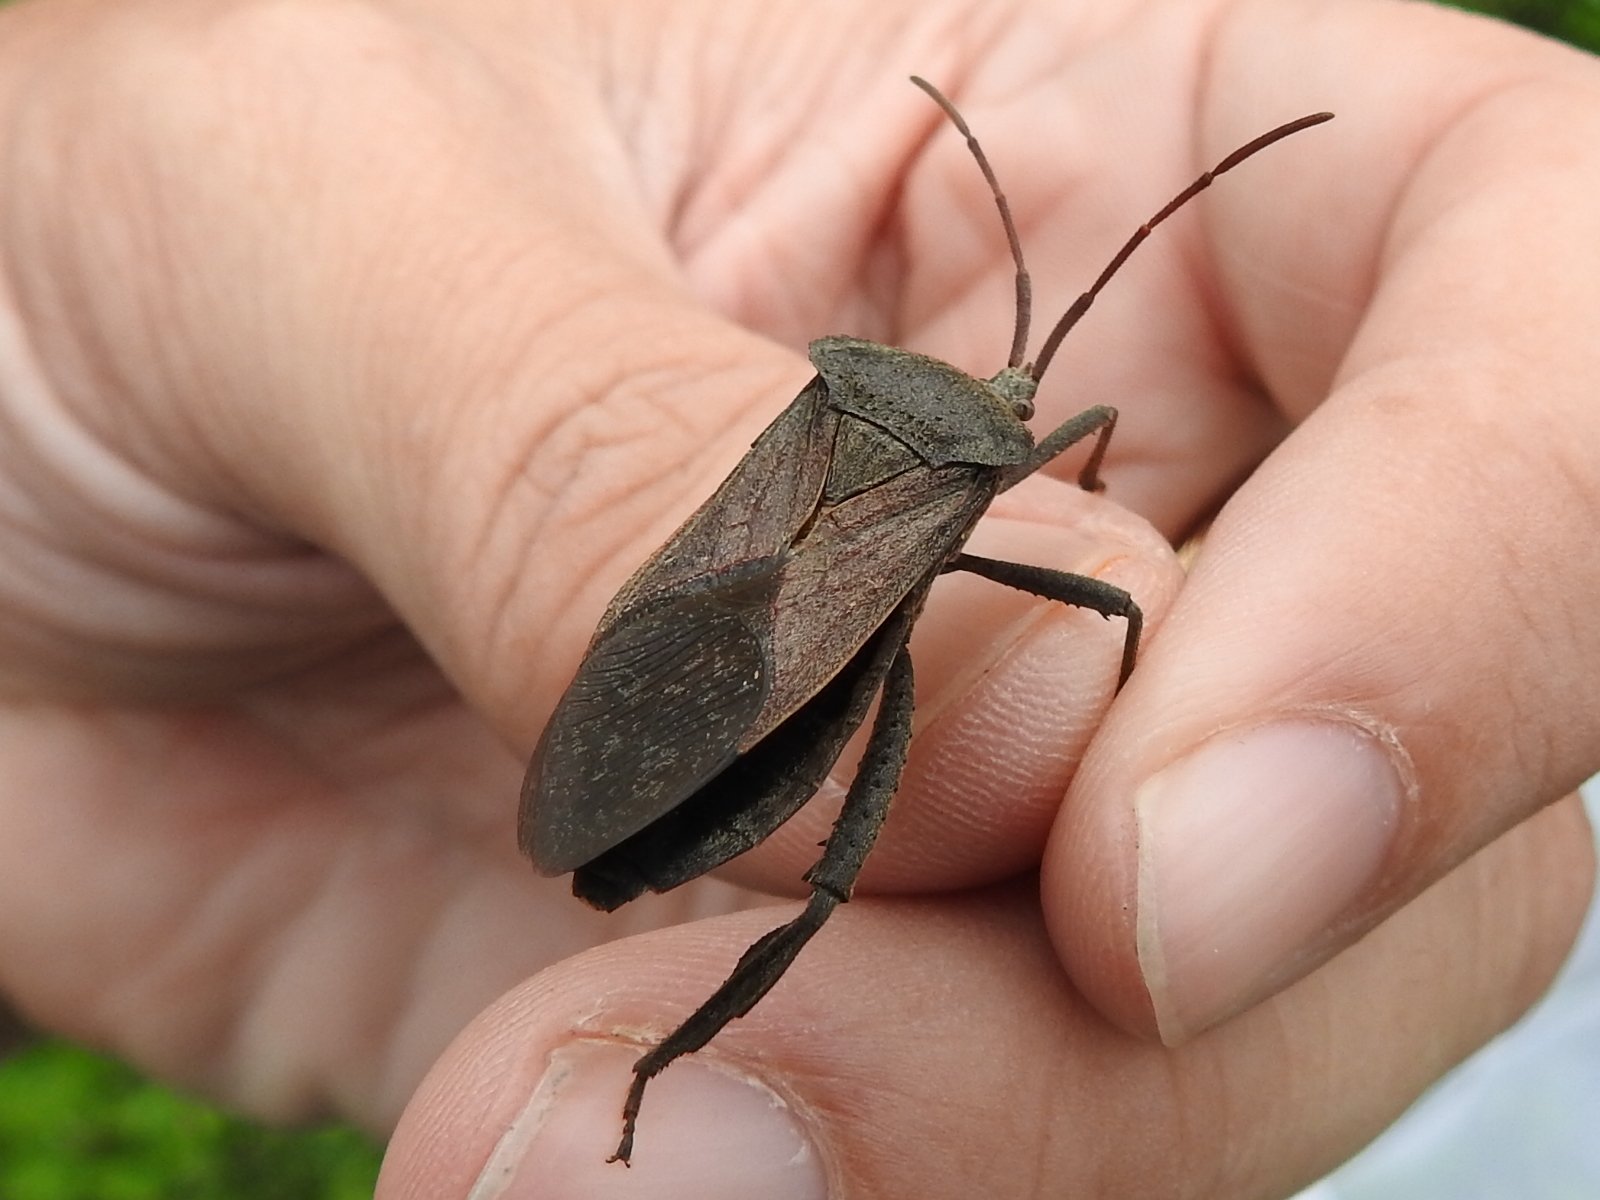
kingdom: Animalia
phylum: Arthropoda
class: Insecta
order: Hemiptera
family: Coreidae
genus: Acanthocephala
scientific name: Acanthocephala femorata
